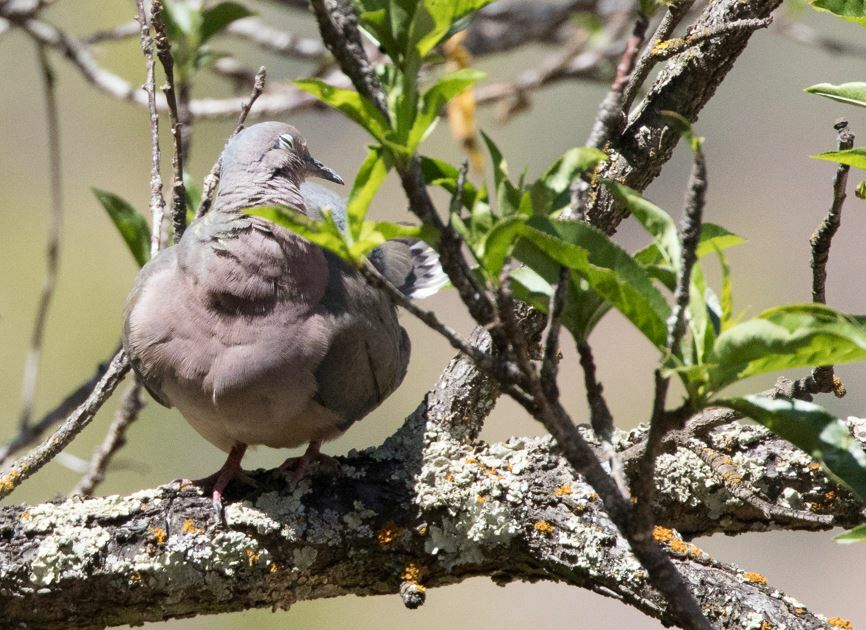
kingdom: Animalia
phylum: Chordata
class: Aves
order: Columbiformes
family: Columbidae
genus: Zenaida
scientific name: Zenaida auriculata
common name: Eared dove
